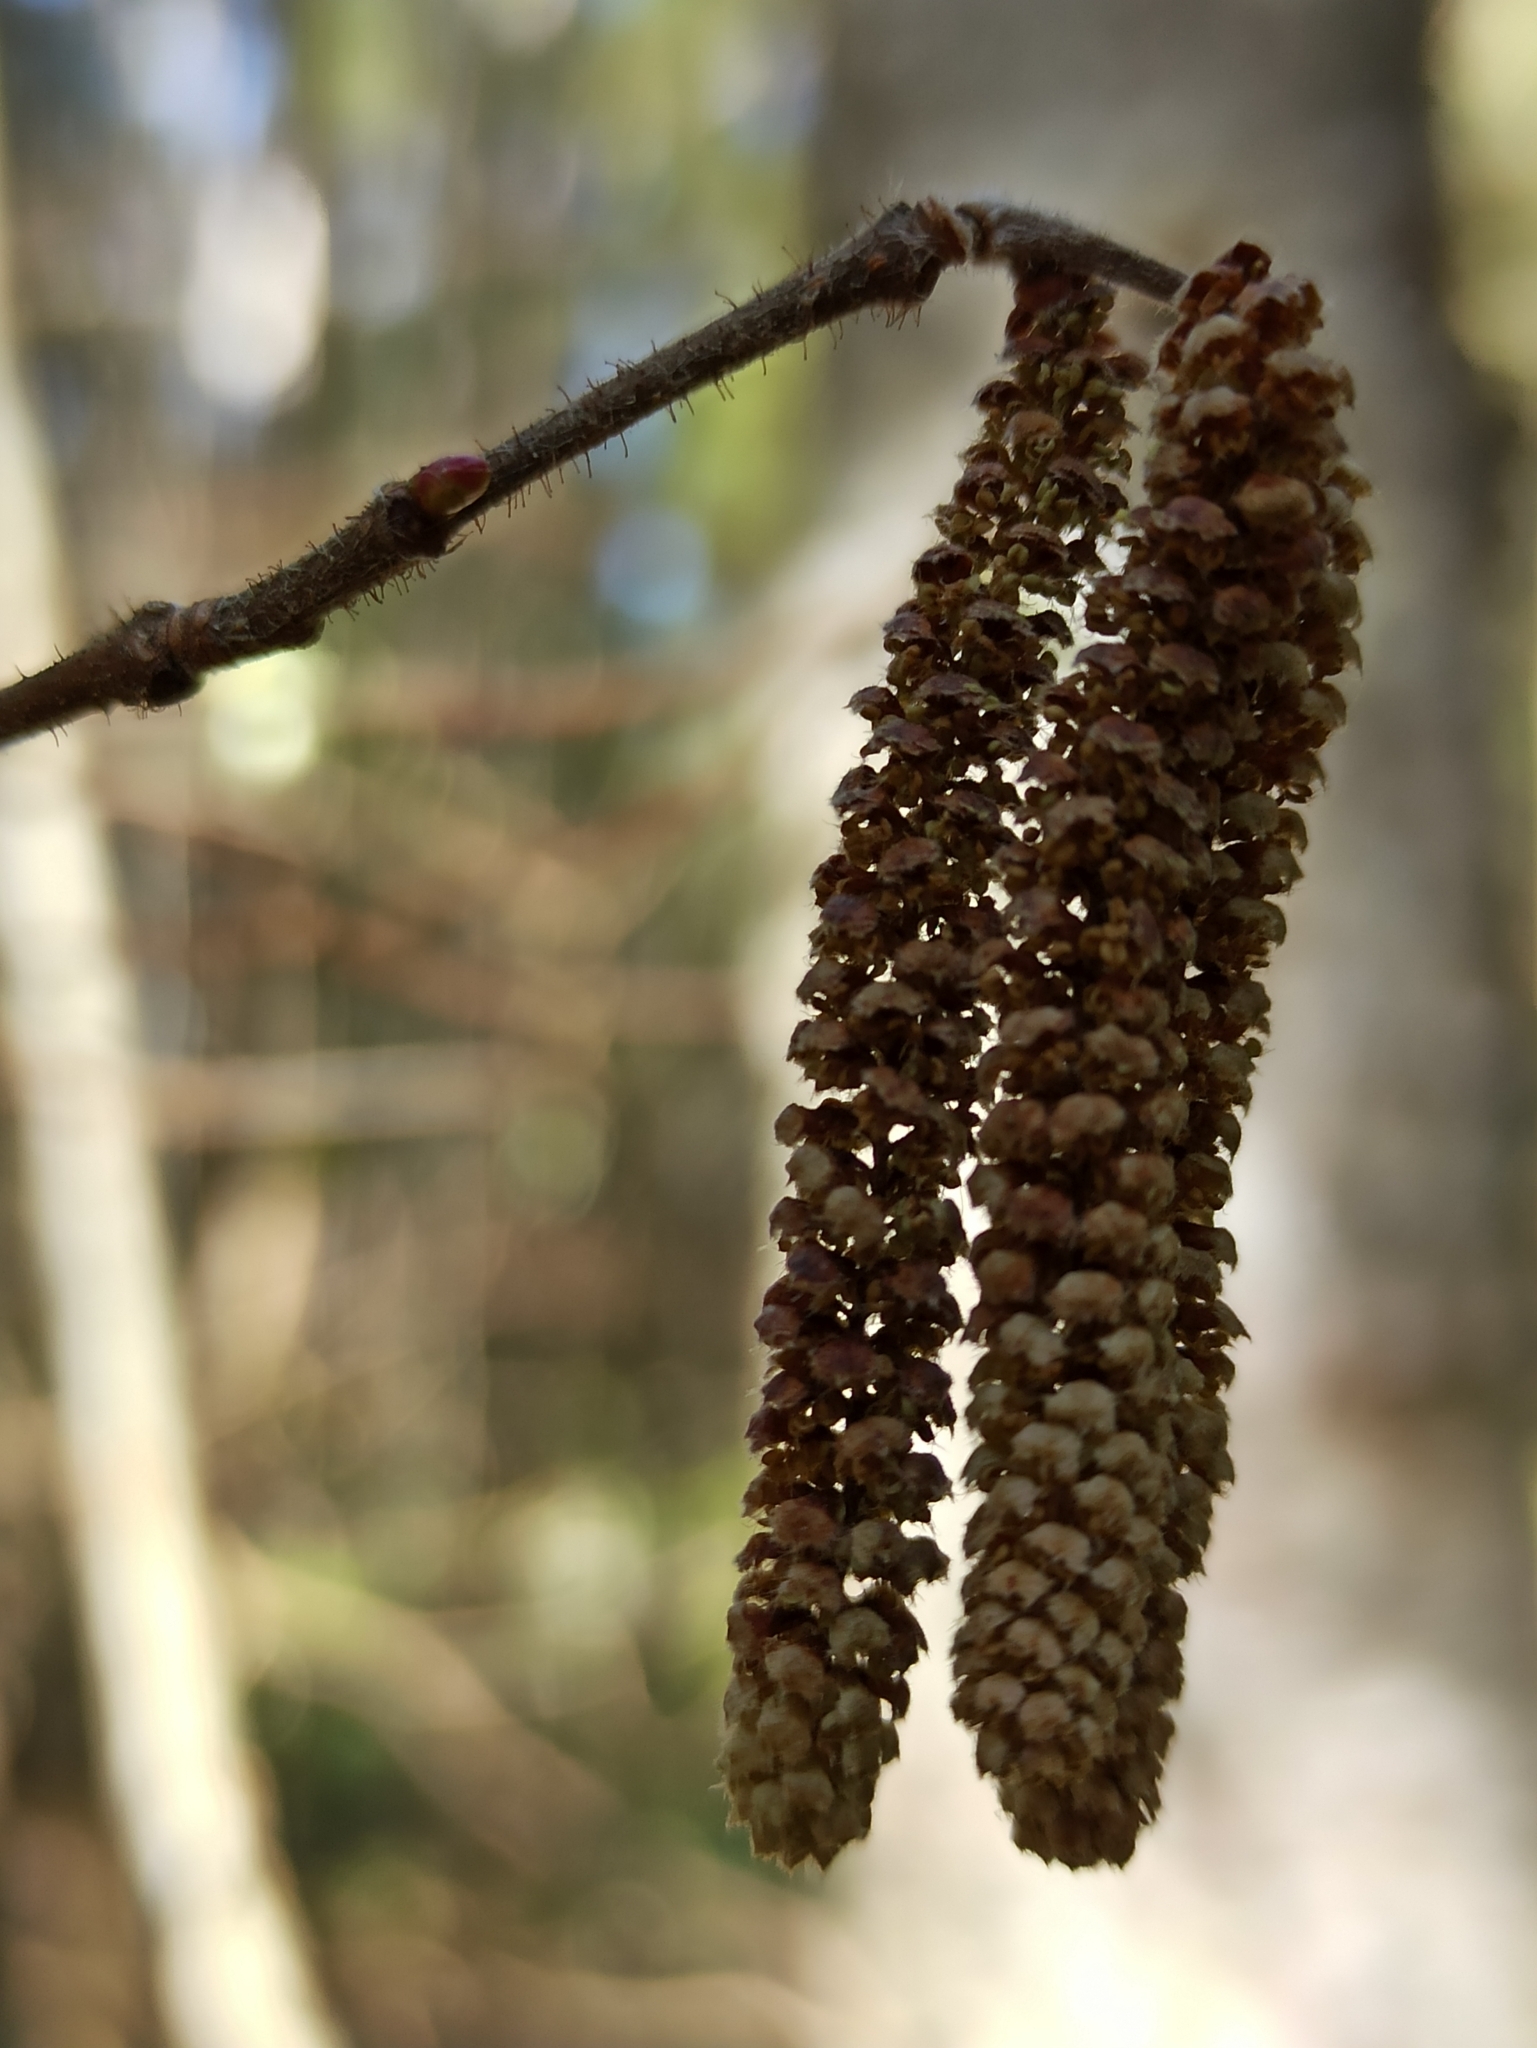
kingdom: Plantae
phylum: Tracheophyta
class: Magnoliopsida
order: Fagales
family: Betulaceae
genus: Corylus
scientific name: Corylus avellana
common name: European hazel
